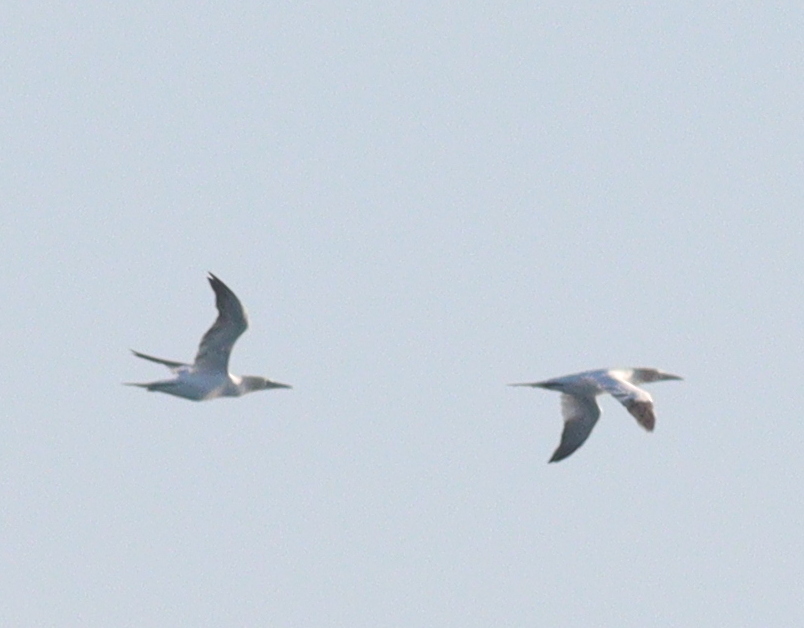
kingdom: Animalia
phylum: Chordata
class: Aves
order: Suliformes
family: Sulidae
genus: Morus
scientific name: Morus bassanus
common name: Northern gannet
